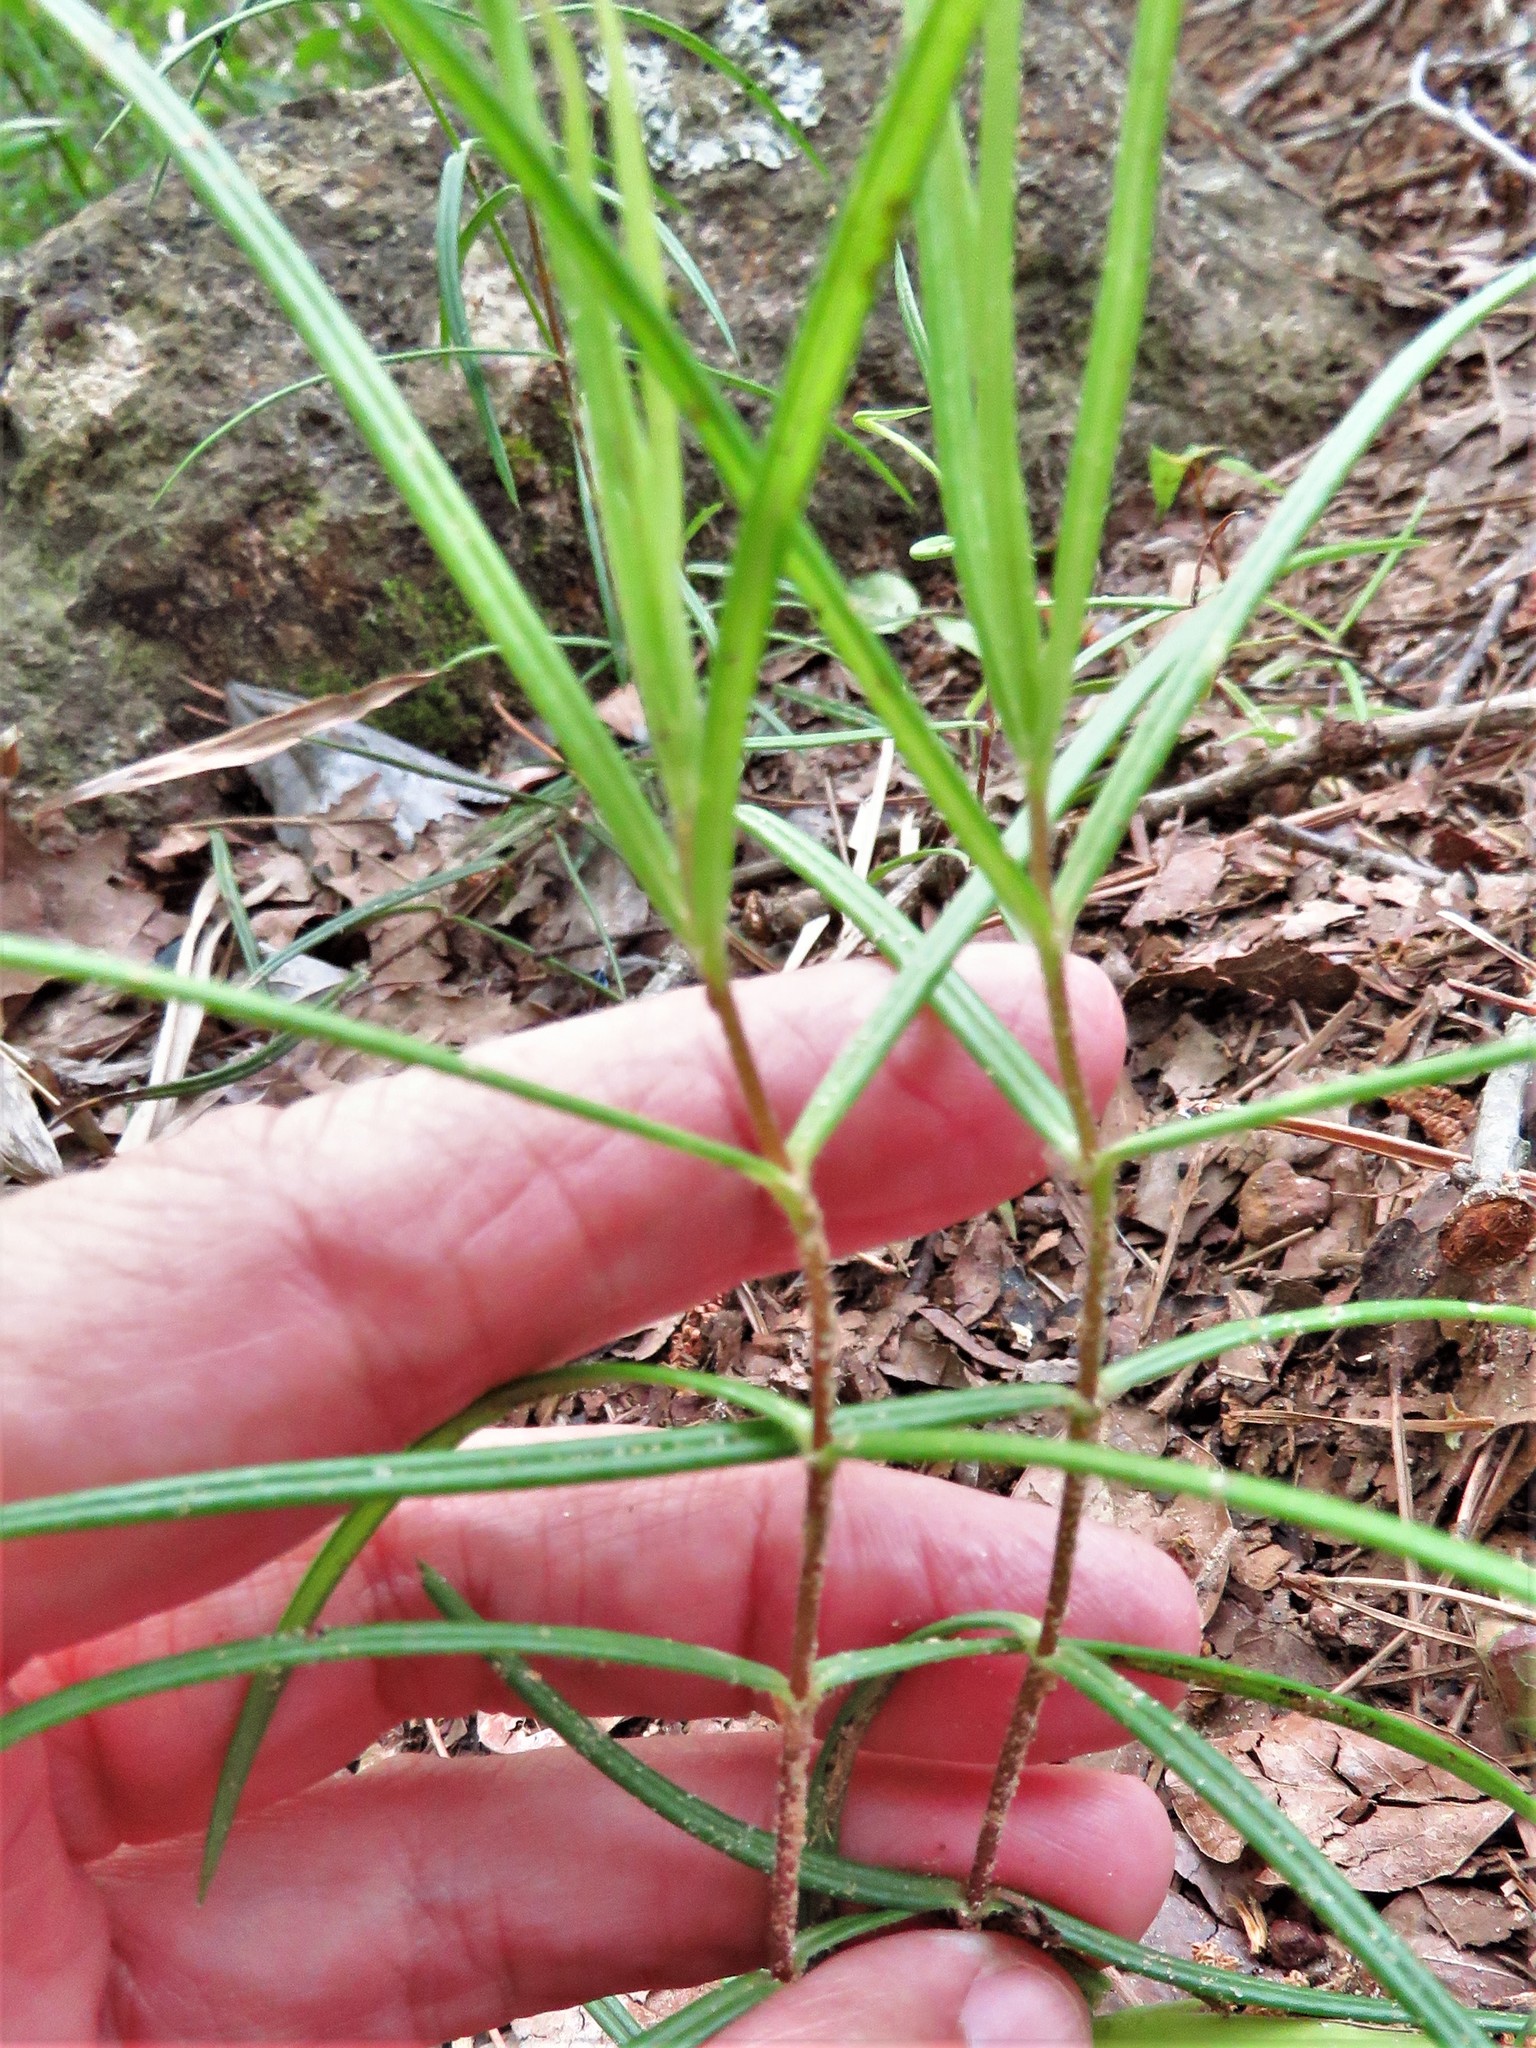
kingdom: Plantae
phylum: Tracheophyta
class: Magnoliopsida
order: Ericales
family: Polemoniaceae
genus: Phlox
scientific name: Phlox pilosa
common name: Prairie phlox
